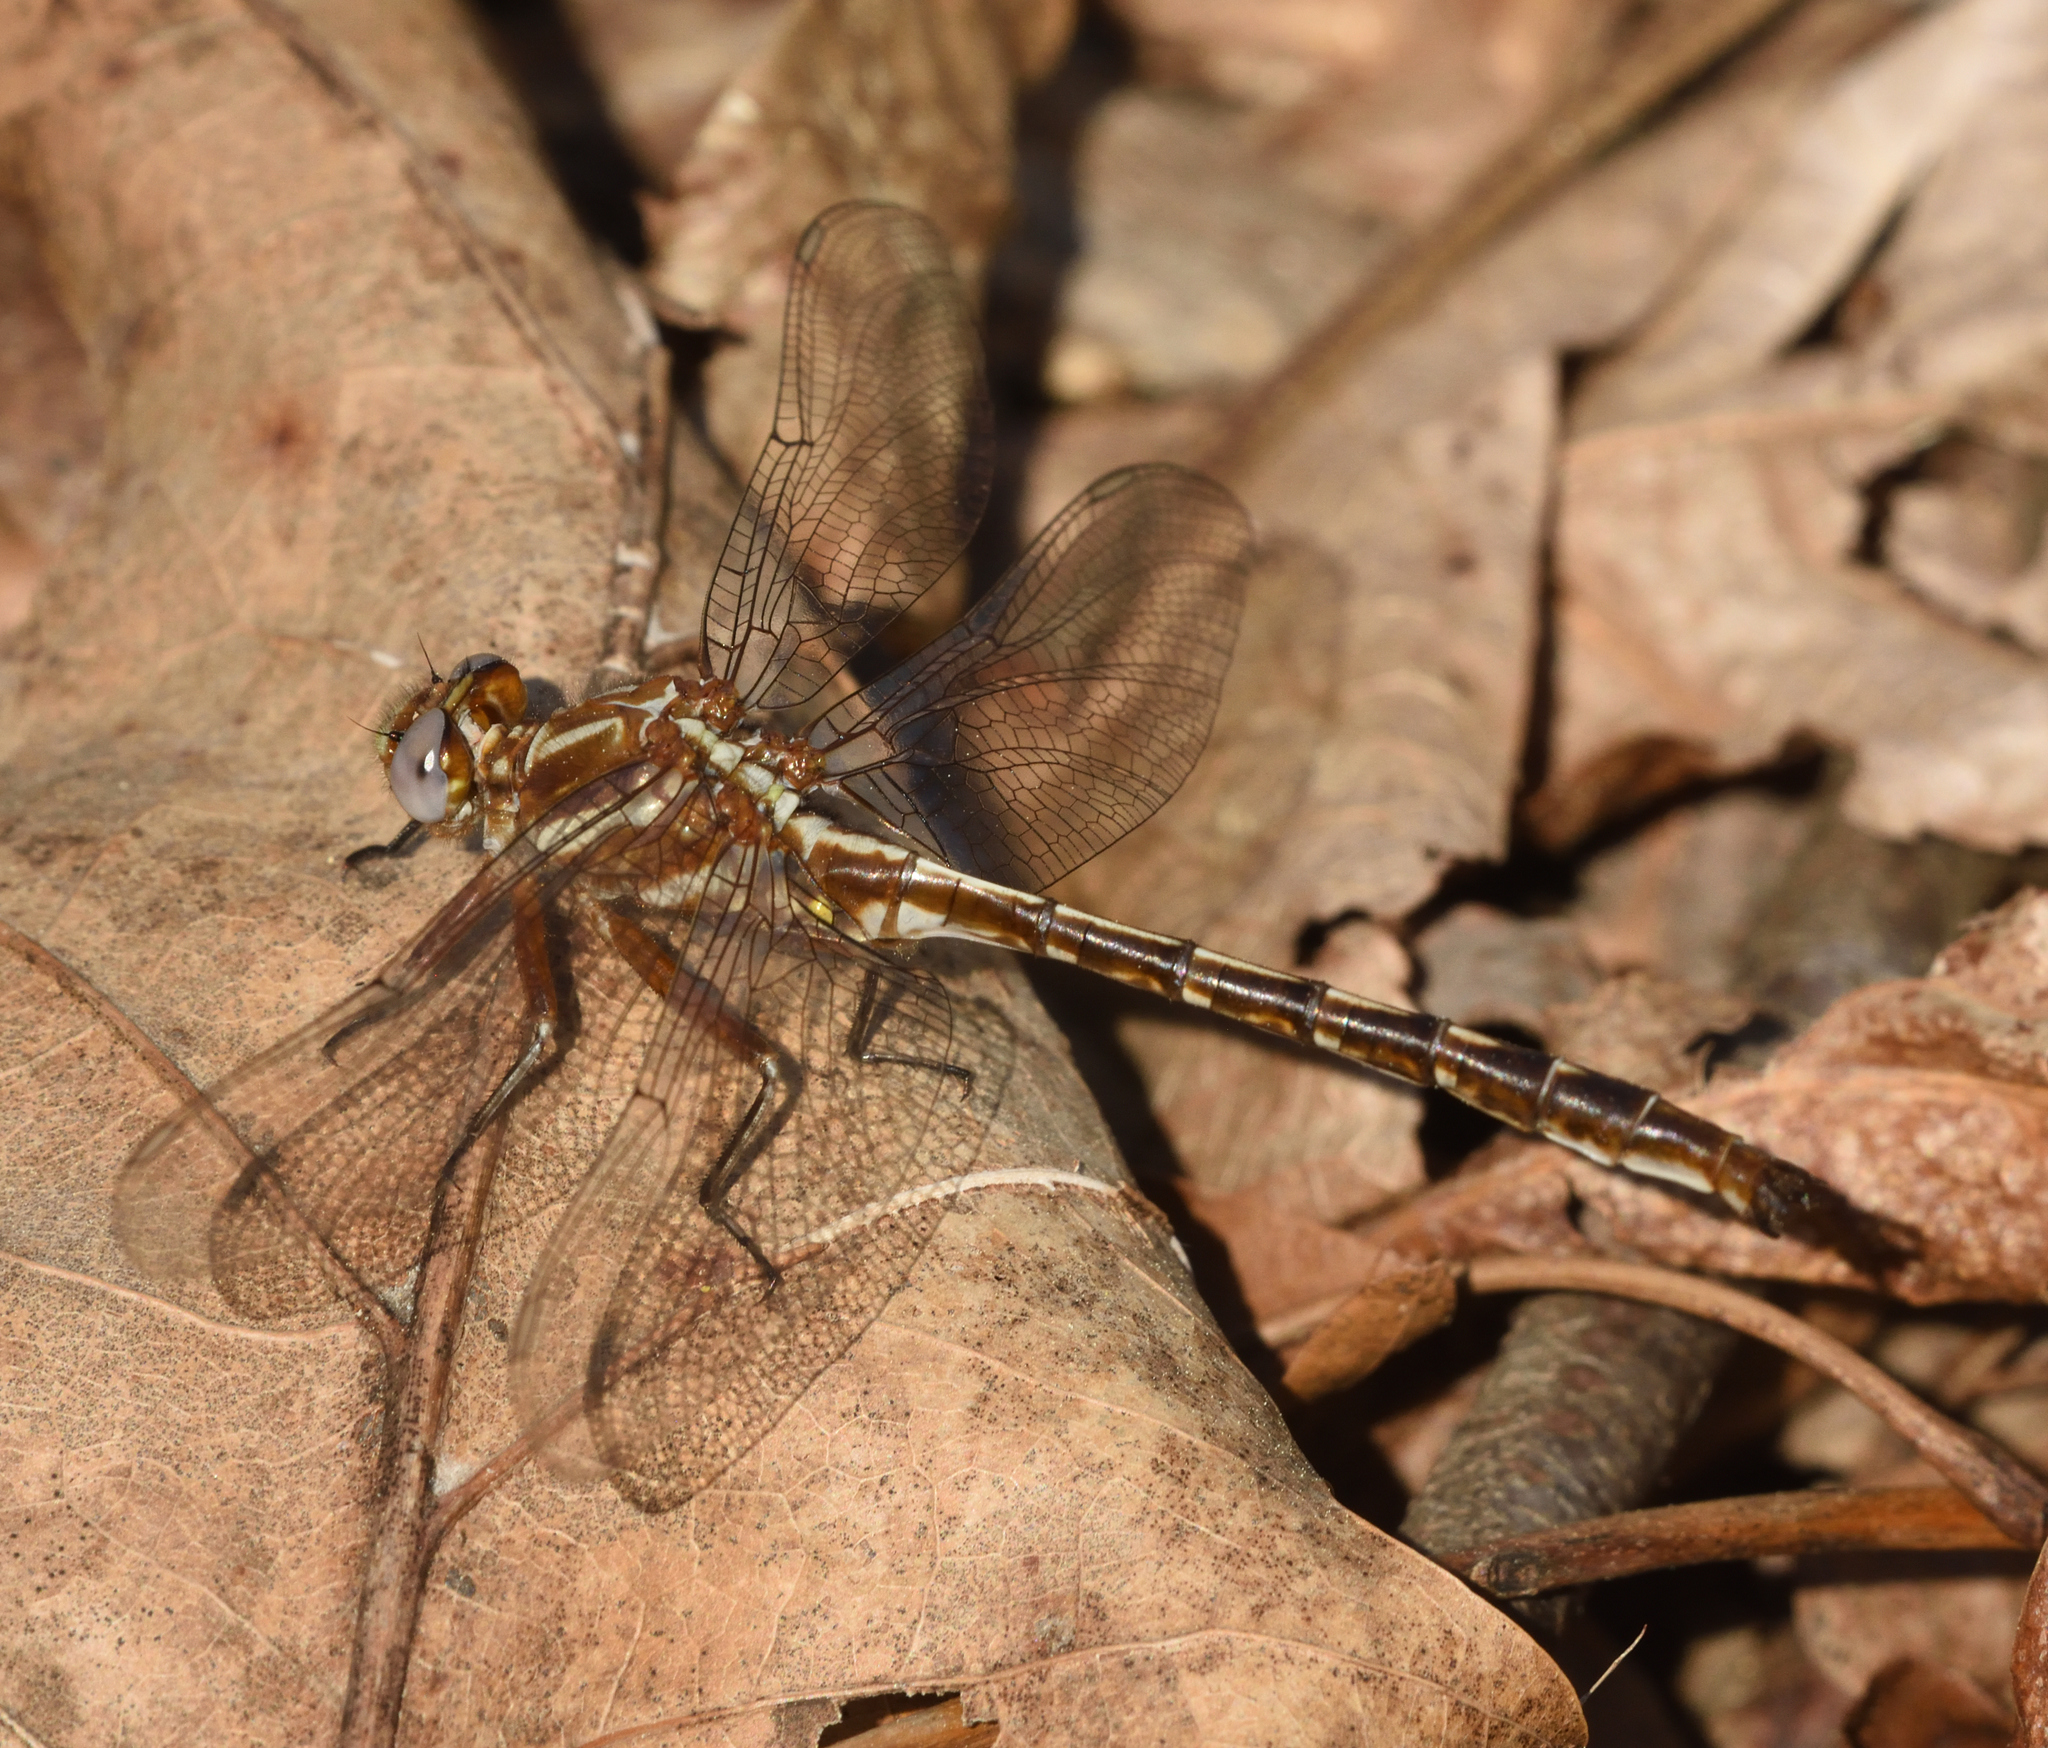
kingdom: Animalia
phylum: Arthropoda
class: Insecta
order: Odonata
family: Gomphidae
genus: Phanogomphus
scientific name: Phanogomphus lividus
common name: Ashy clubtail
